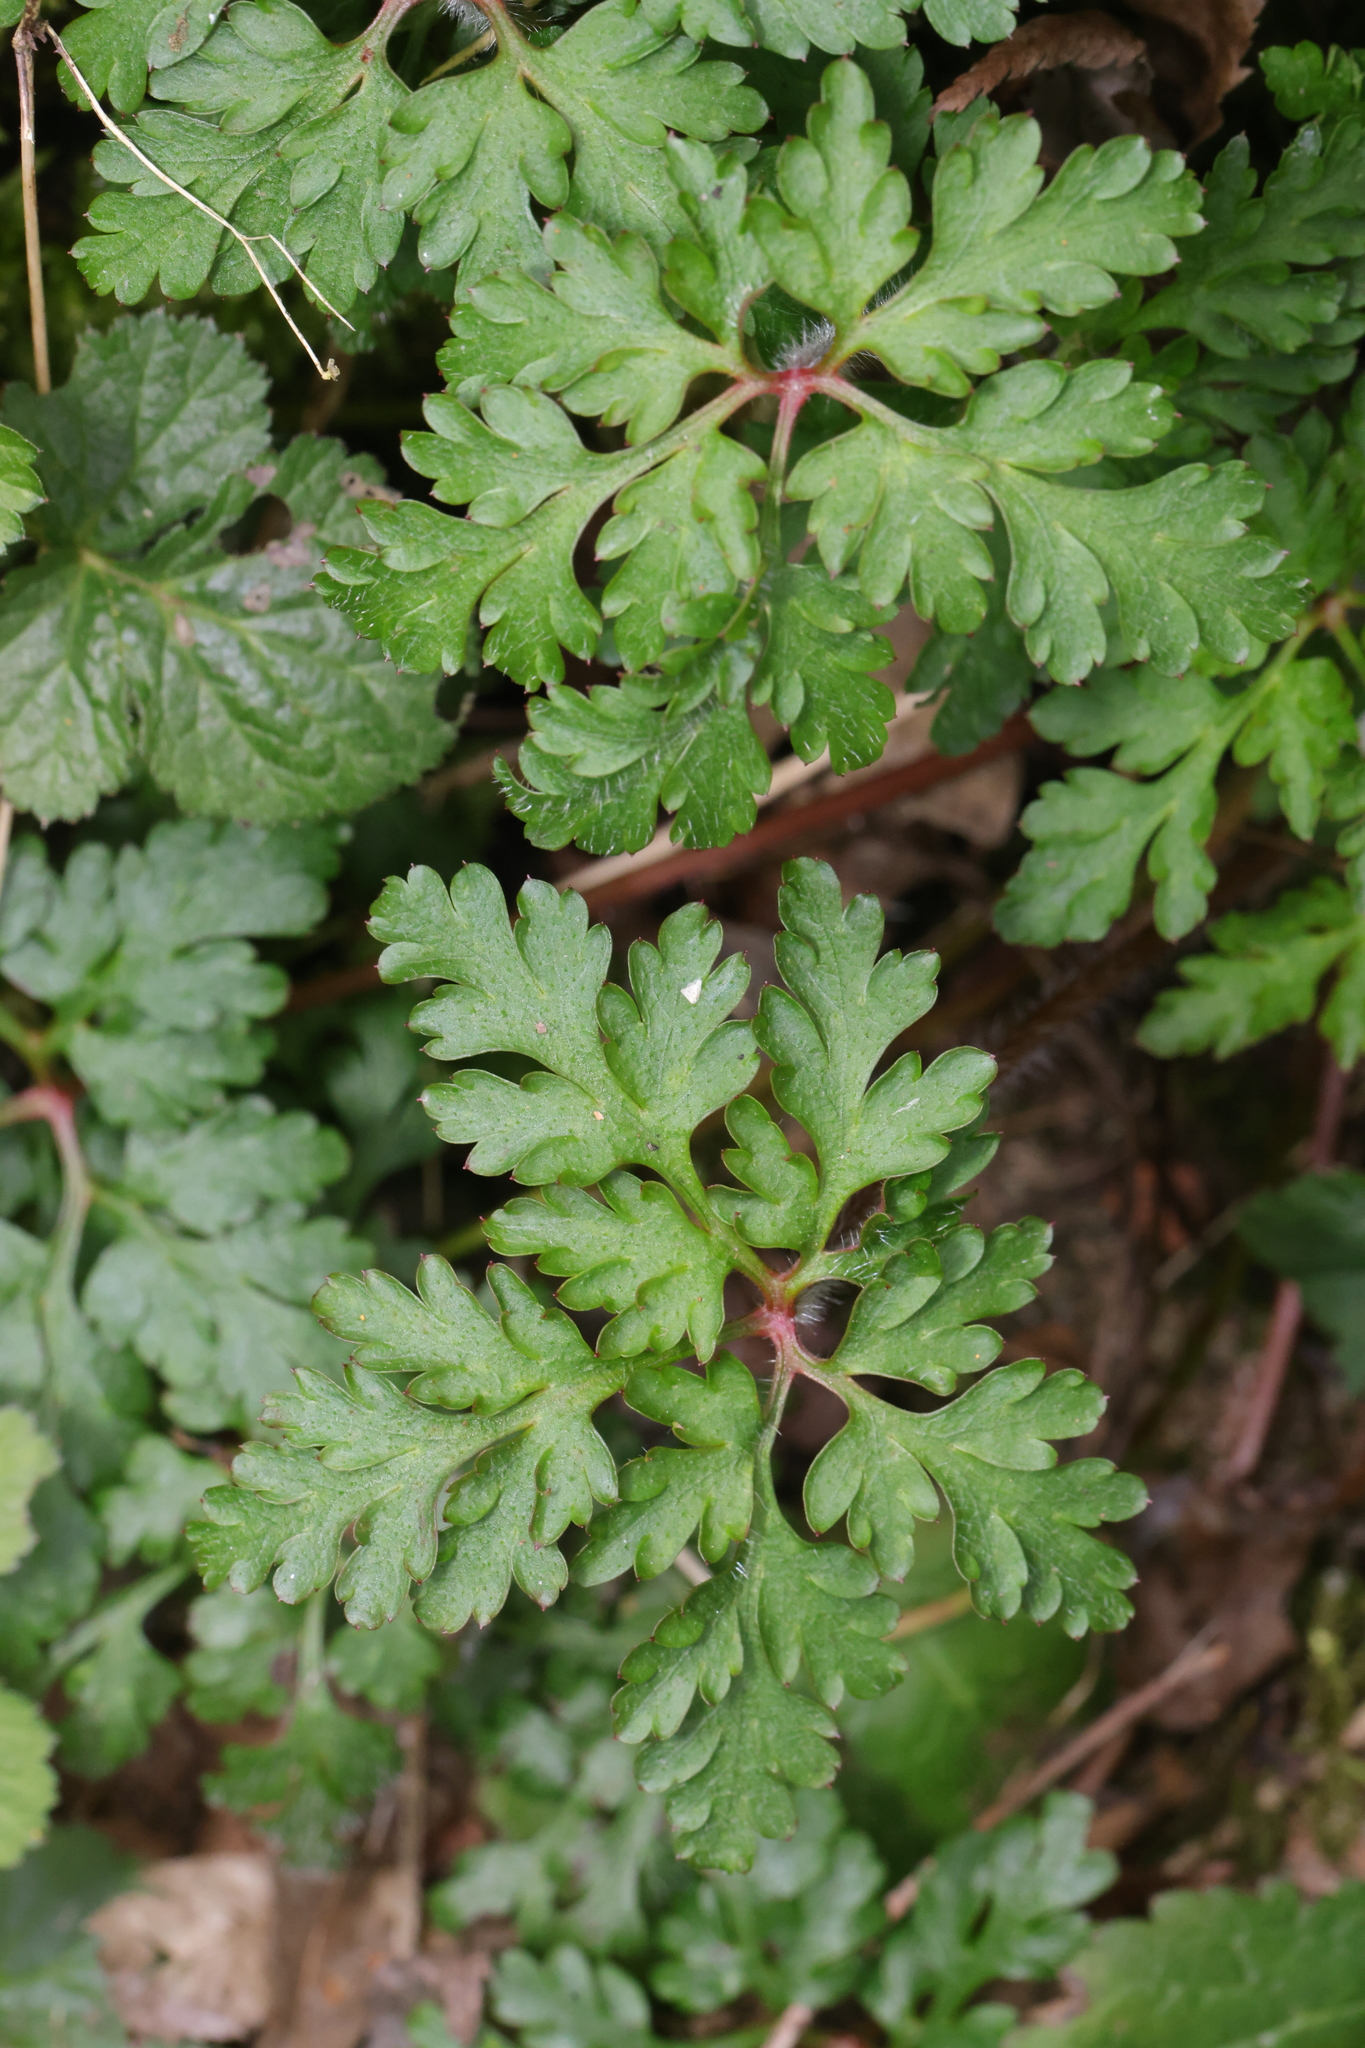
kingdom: Plantae
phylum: Tracheophyta
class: Magnoliopsida
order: Geraniales
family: Geraniaceae
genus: Geranium
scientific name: Geranium robertianum
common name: Herb-robert
